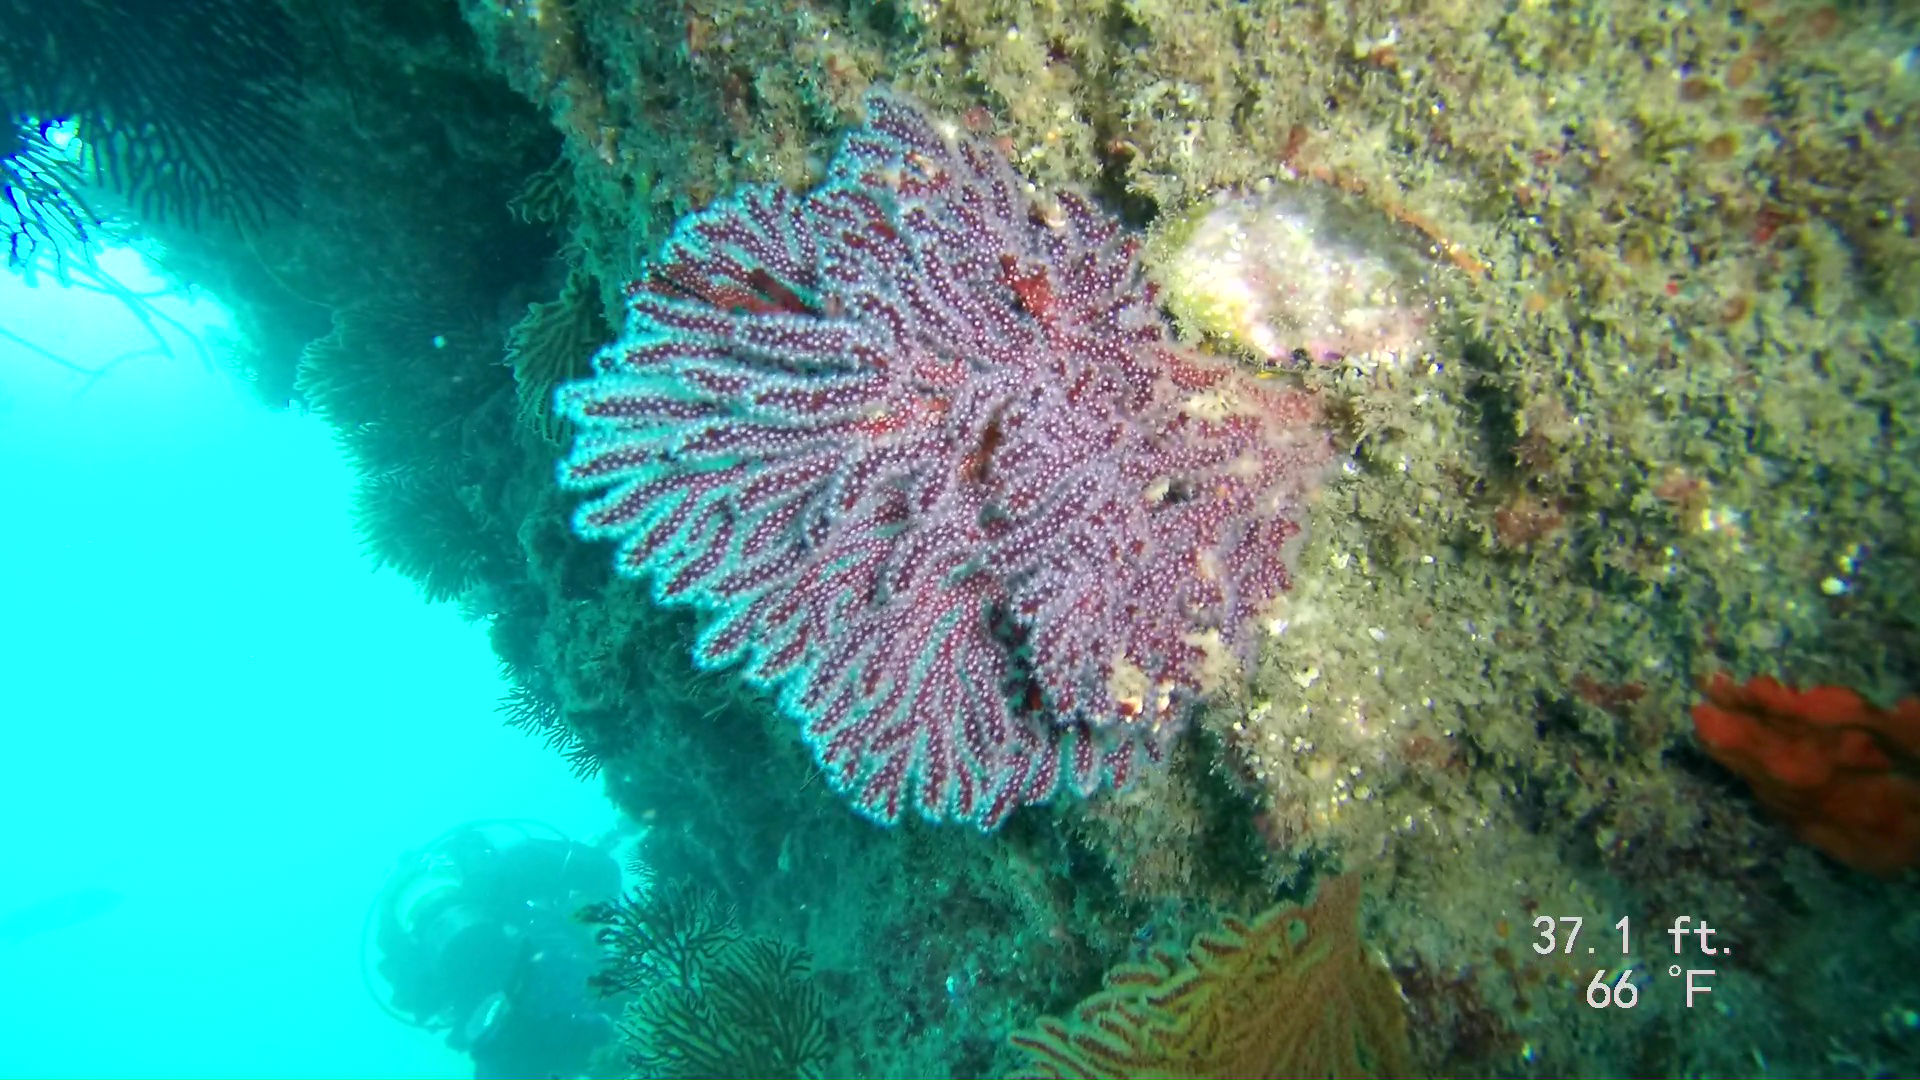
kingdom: Animalia
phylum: Cnidaria
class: Anthozoa
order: Malacalcyonacea
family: Plexauridae
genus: Muricea
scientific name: Muricea fruticosa
